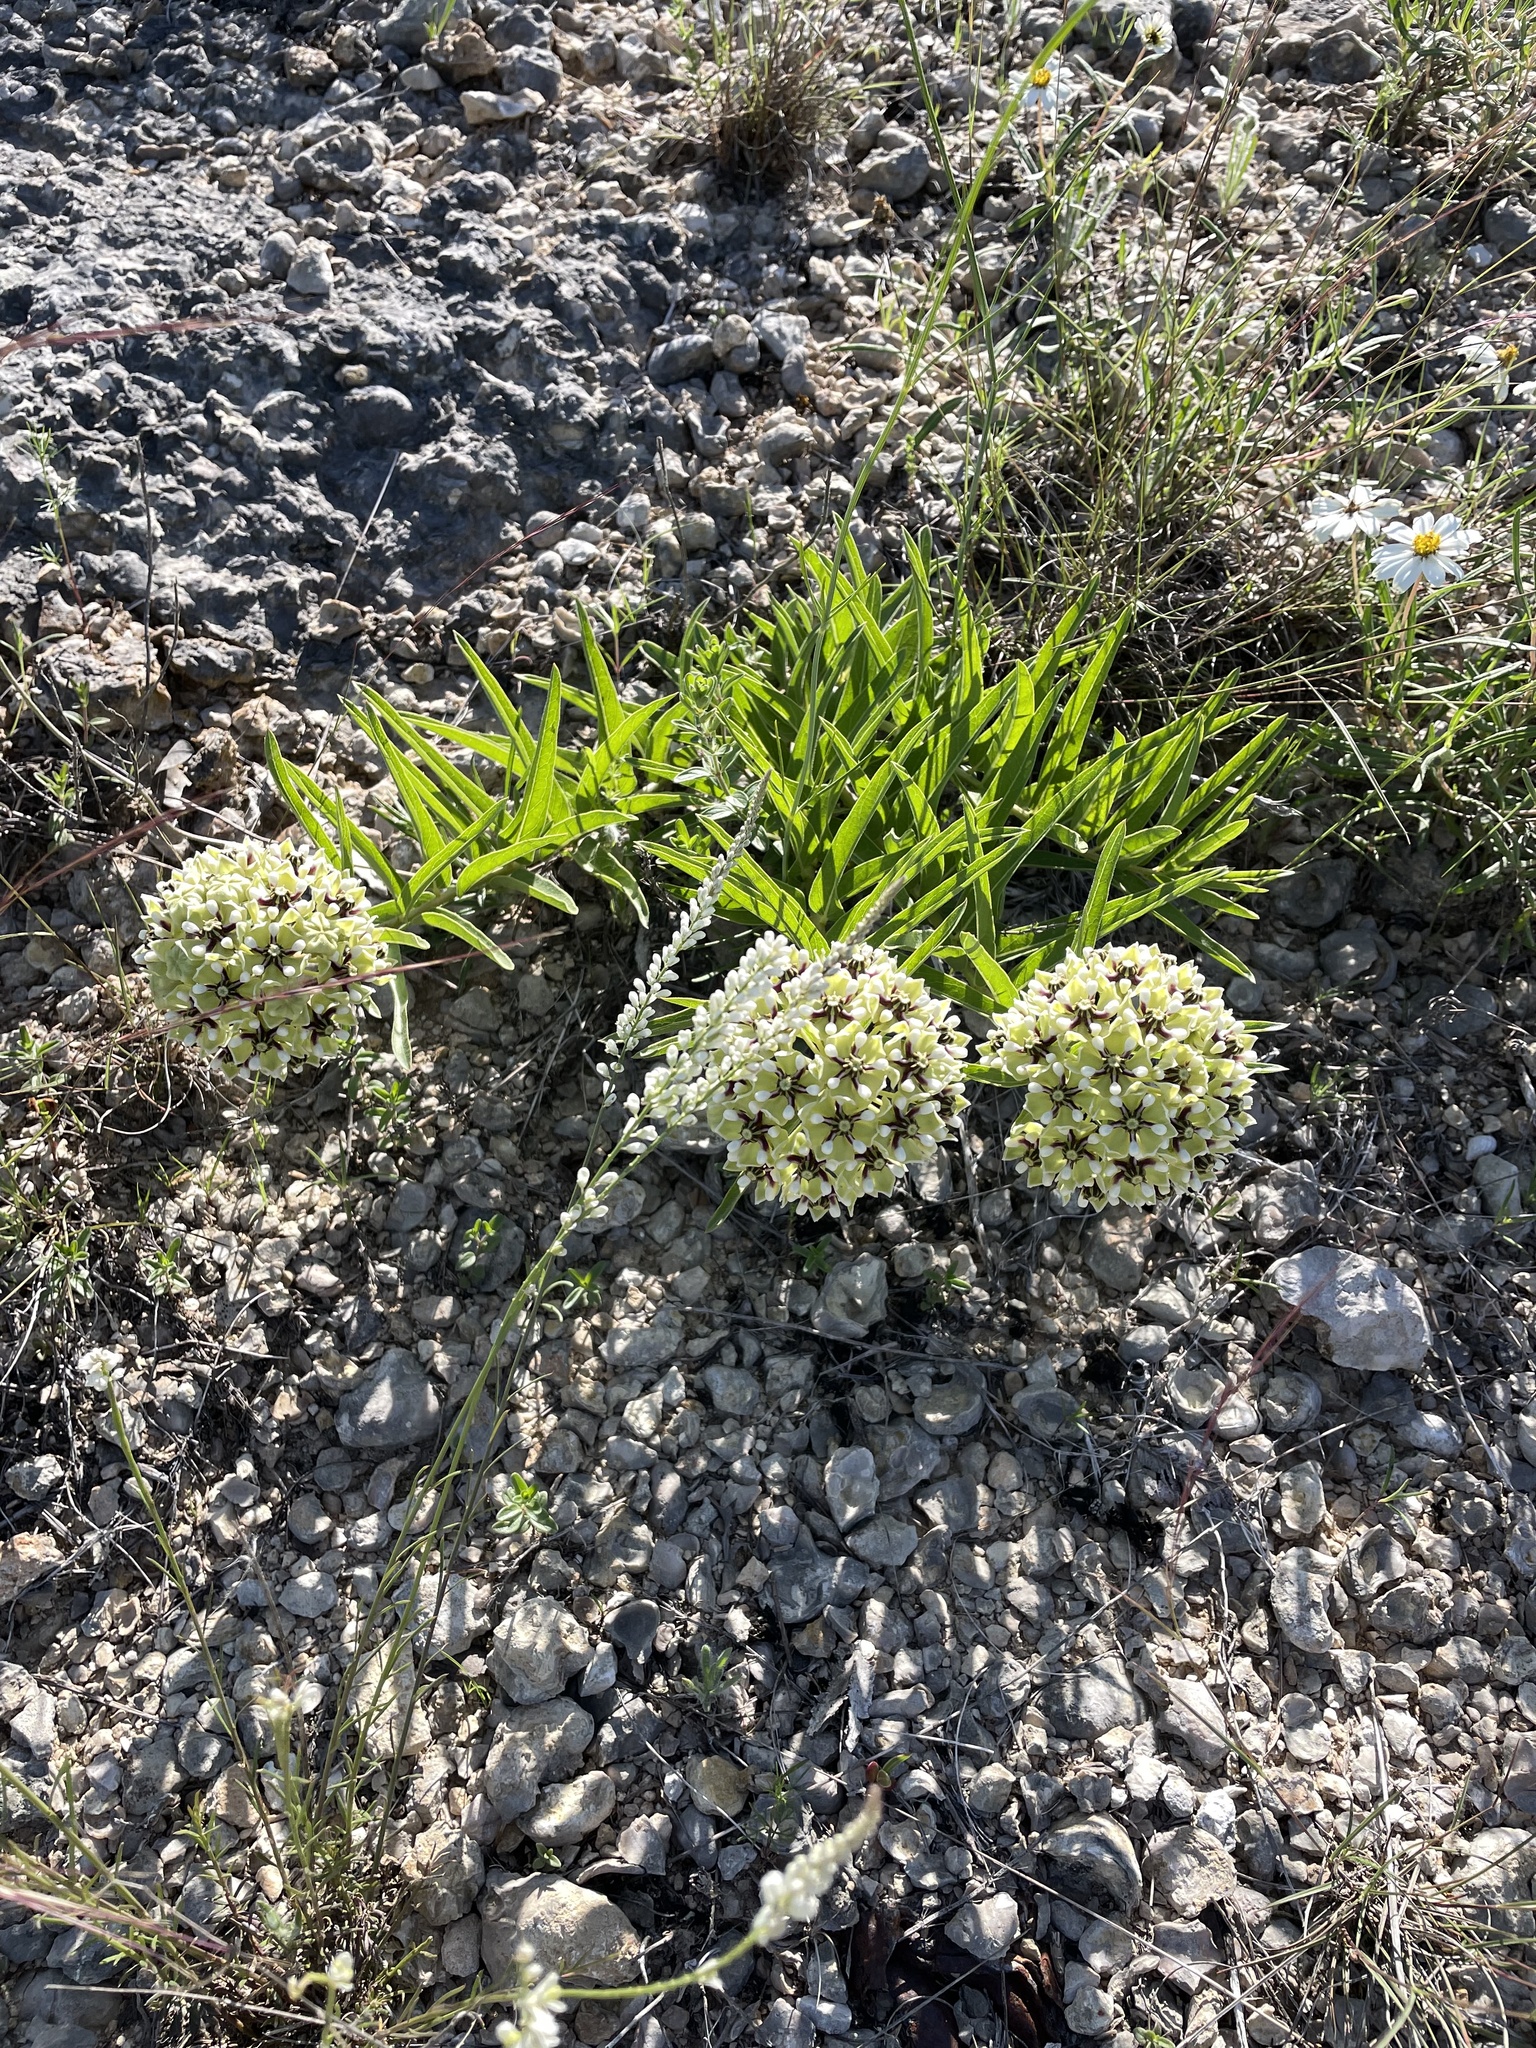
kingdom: Plantae
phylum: Tracheophyta
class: Magnoliopsida
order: Gentianales
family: Apocynaceae
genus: Asclepias
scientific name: Asclepias asperula
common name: Antelope horns
